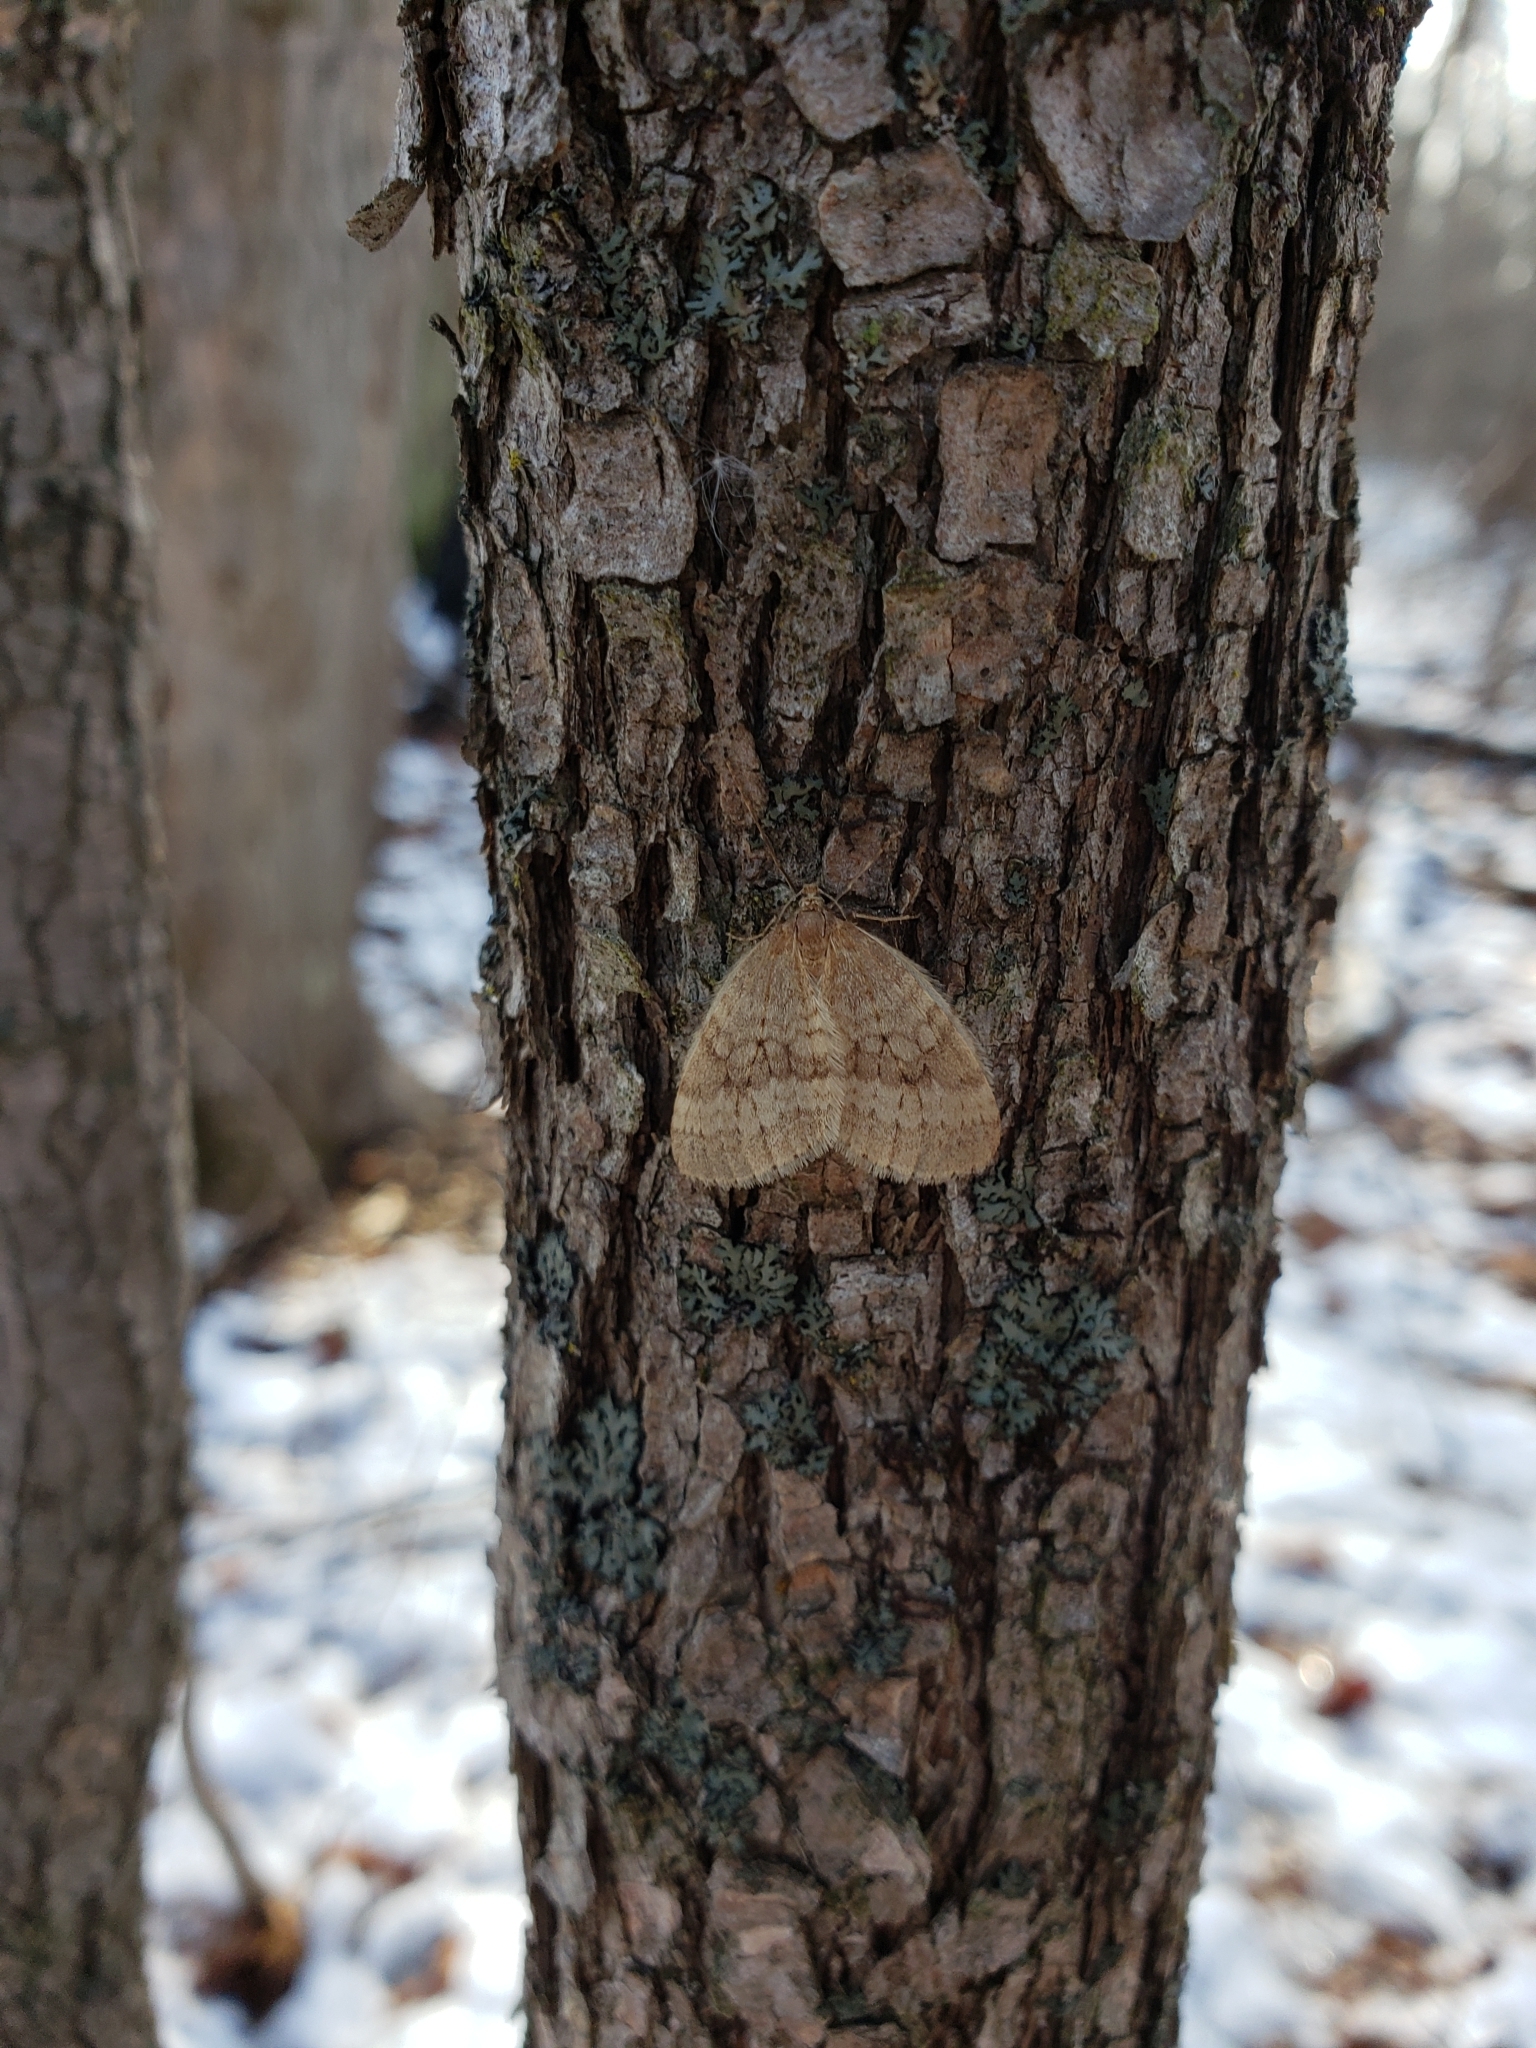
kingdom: Animalia
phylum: Arthropoda
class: Insecta
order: Lepidoptera
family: Geometridae
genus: Operophtera
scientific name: Operophtera bruceata
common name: Bruce spanworm
